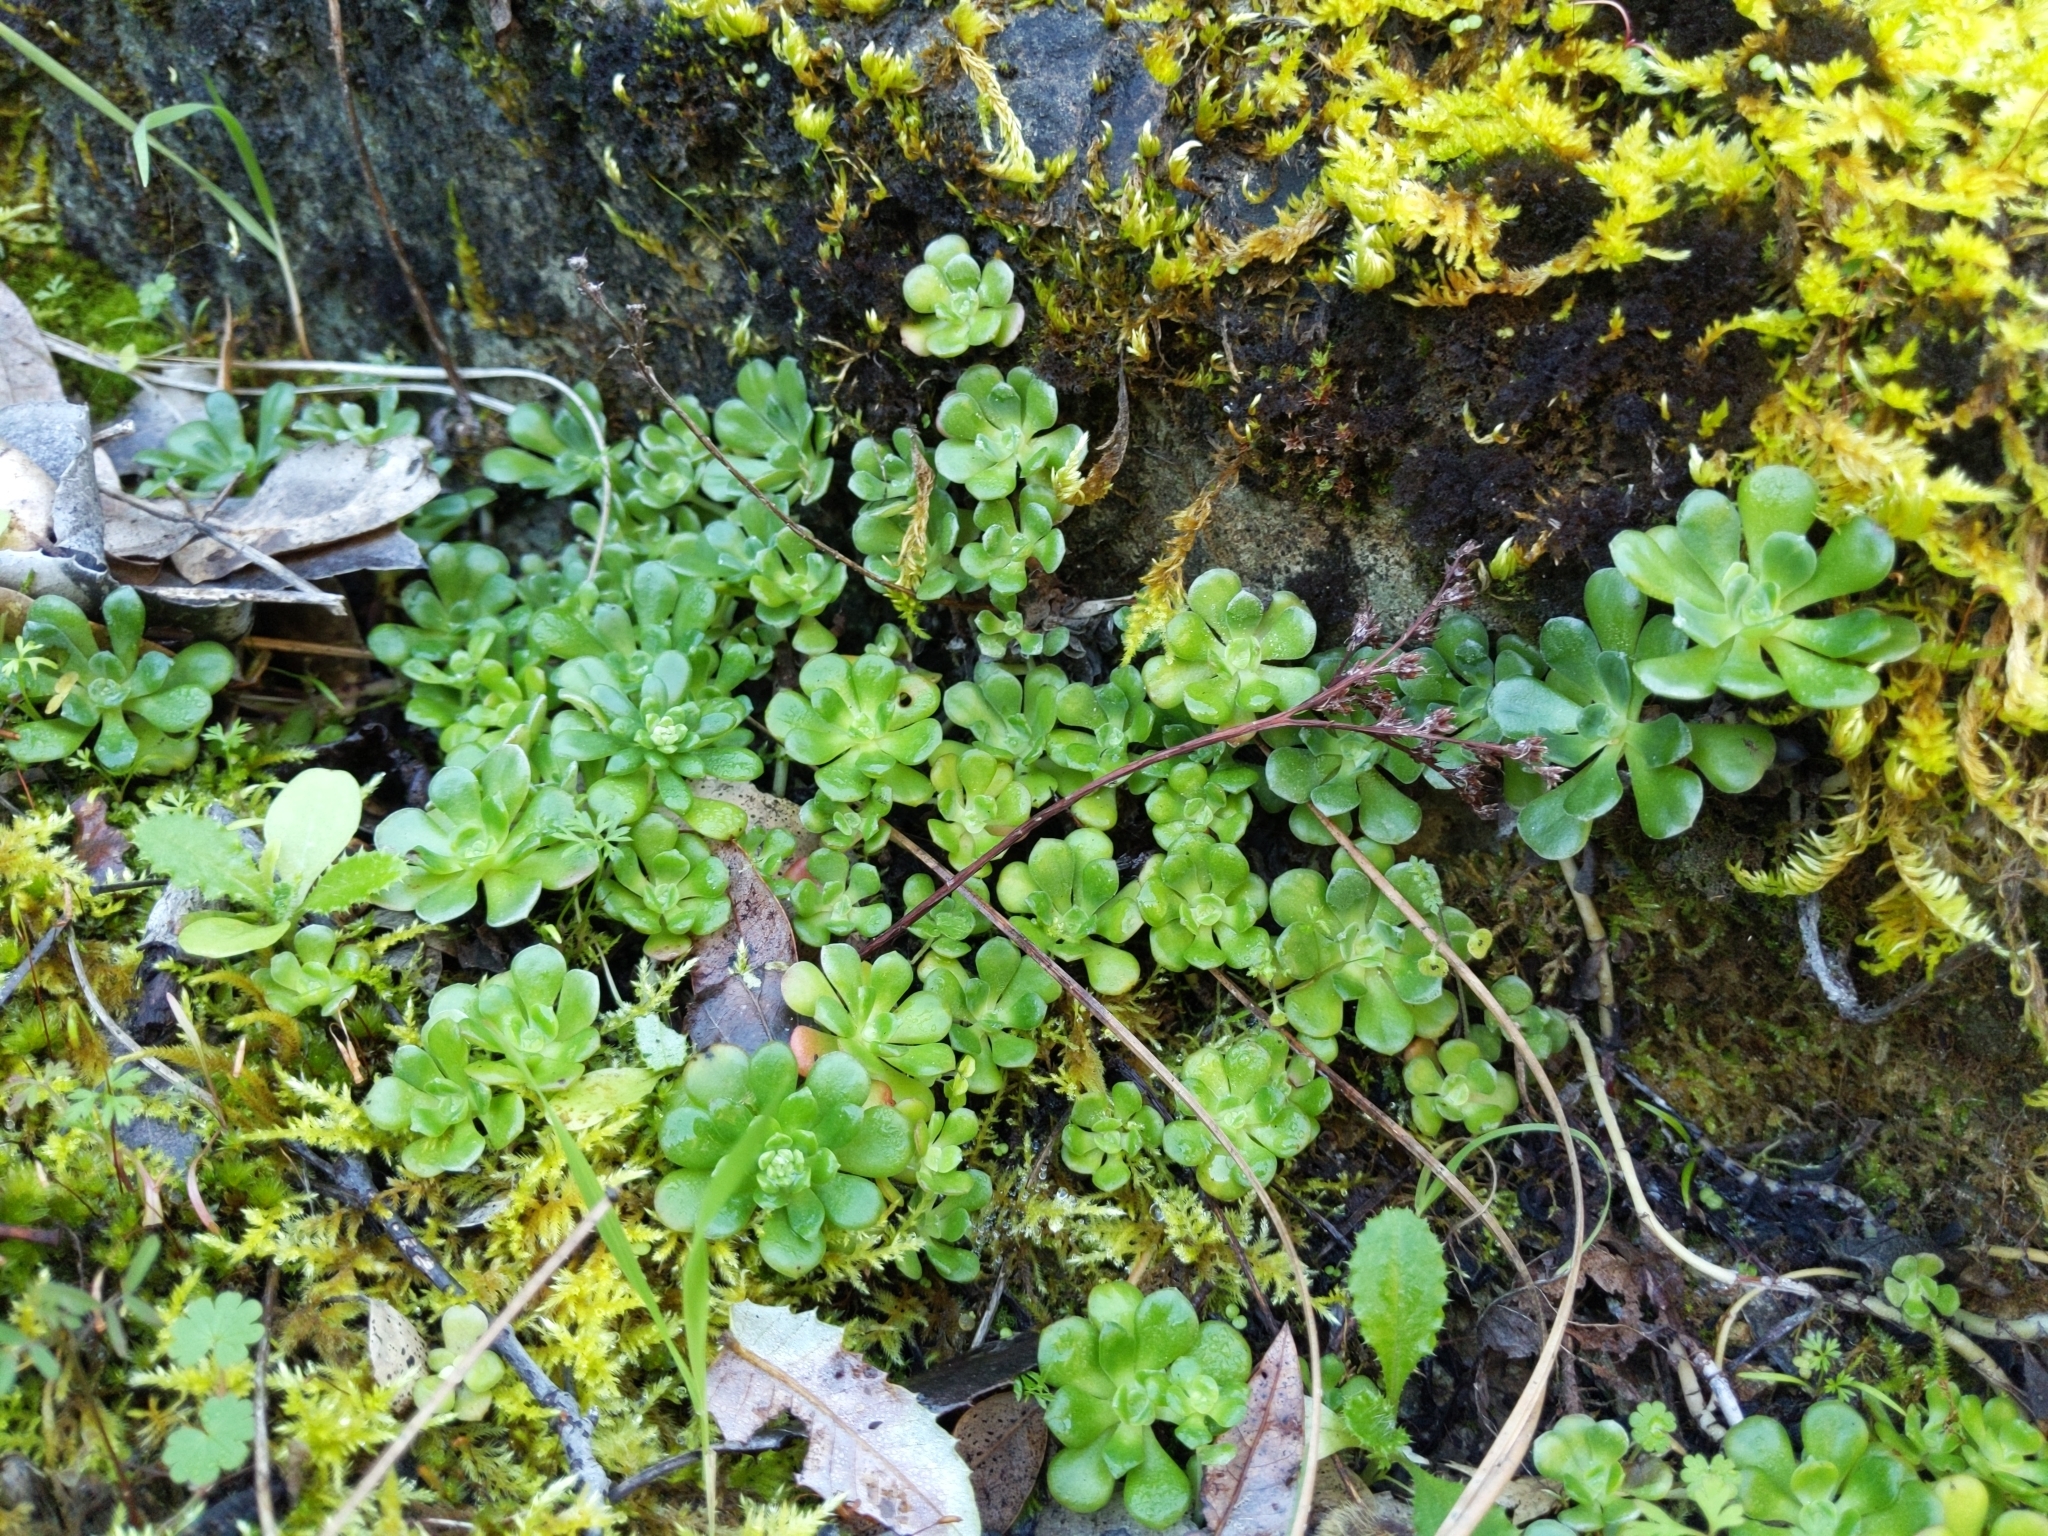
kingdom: Plantae
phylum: Tracheophyta
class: Magnoliopsida
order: Saxifragales
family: Crassulaceae
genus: Sedum
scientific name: Sedum spathulifolium
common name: Colorado stonecrop
